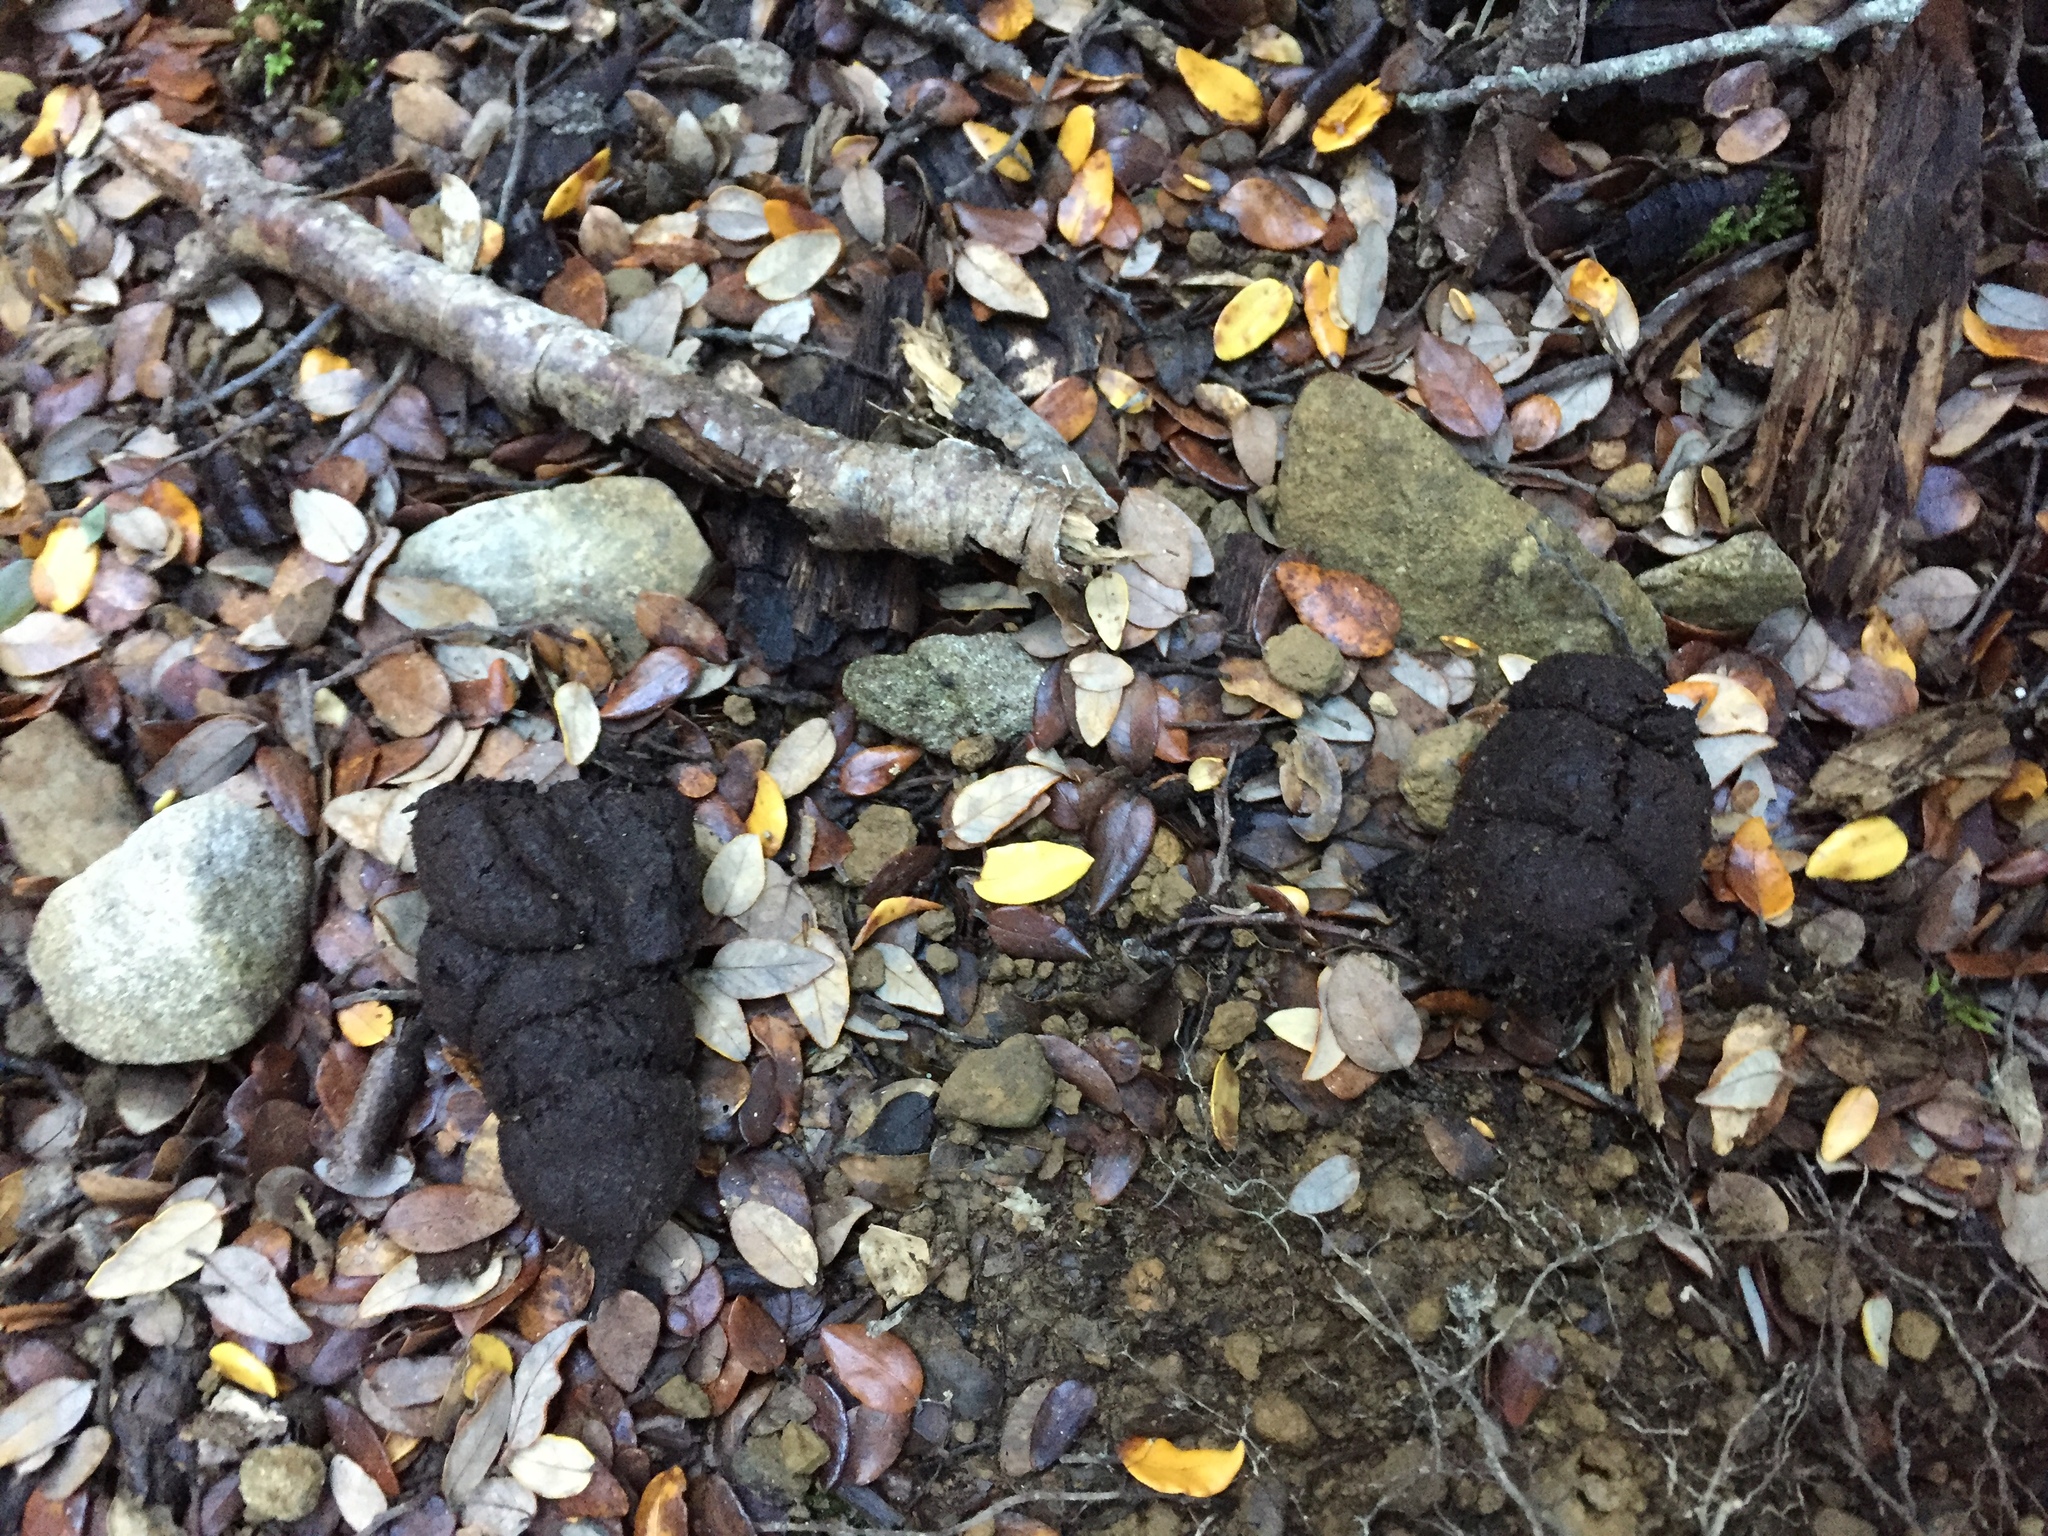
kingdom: Animalia
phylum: Chordata
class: Mammalia
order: Artiodactyla
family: Suidae
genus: Sus
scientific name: Sus scrofa
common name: Wild boar
